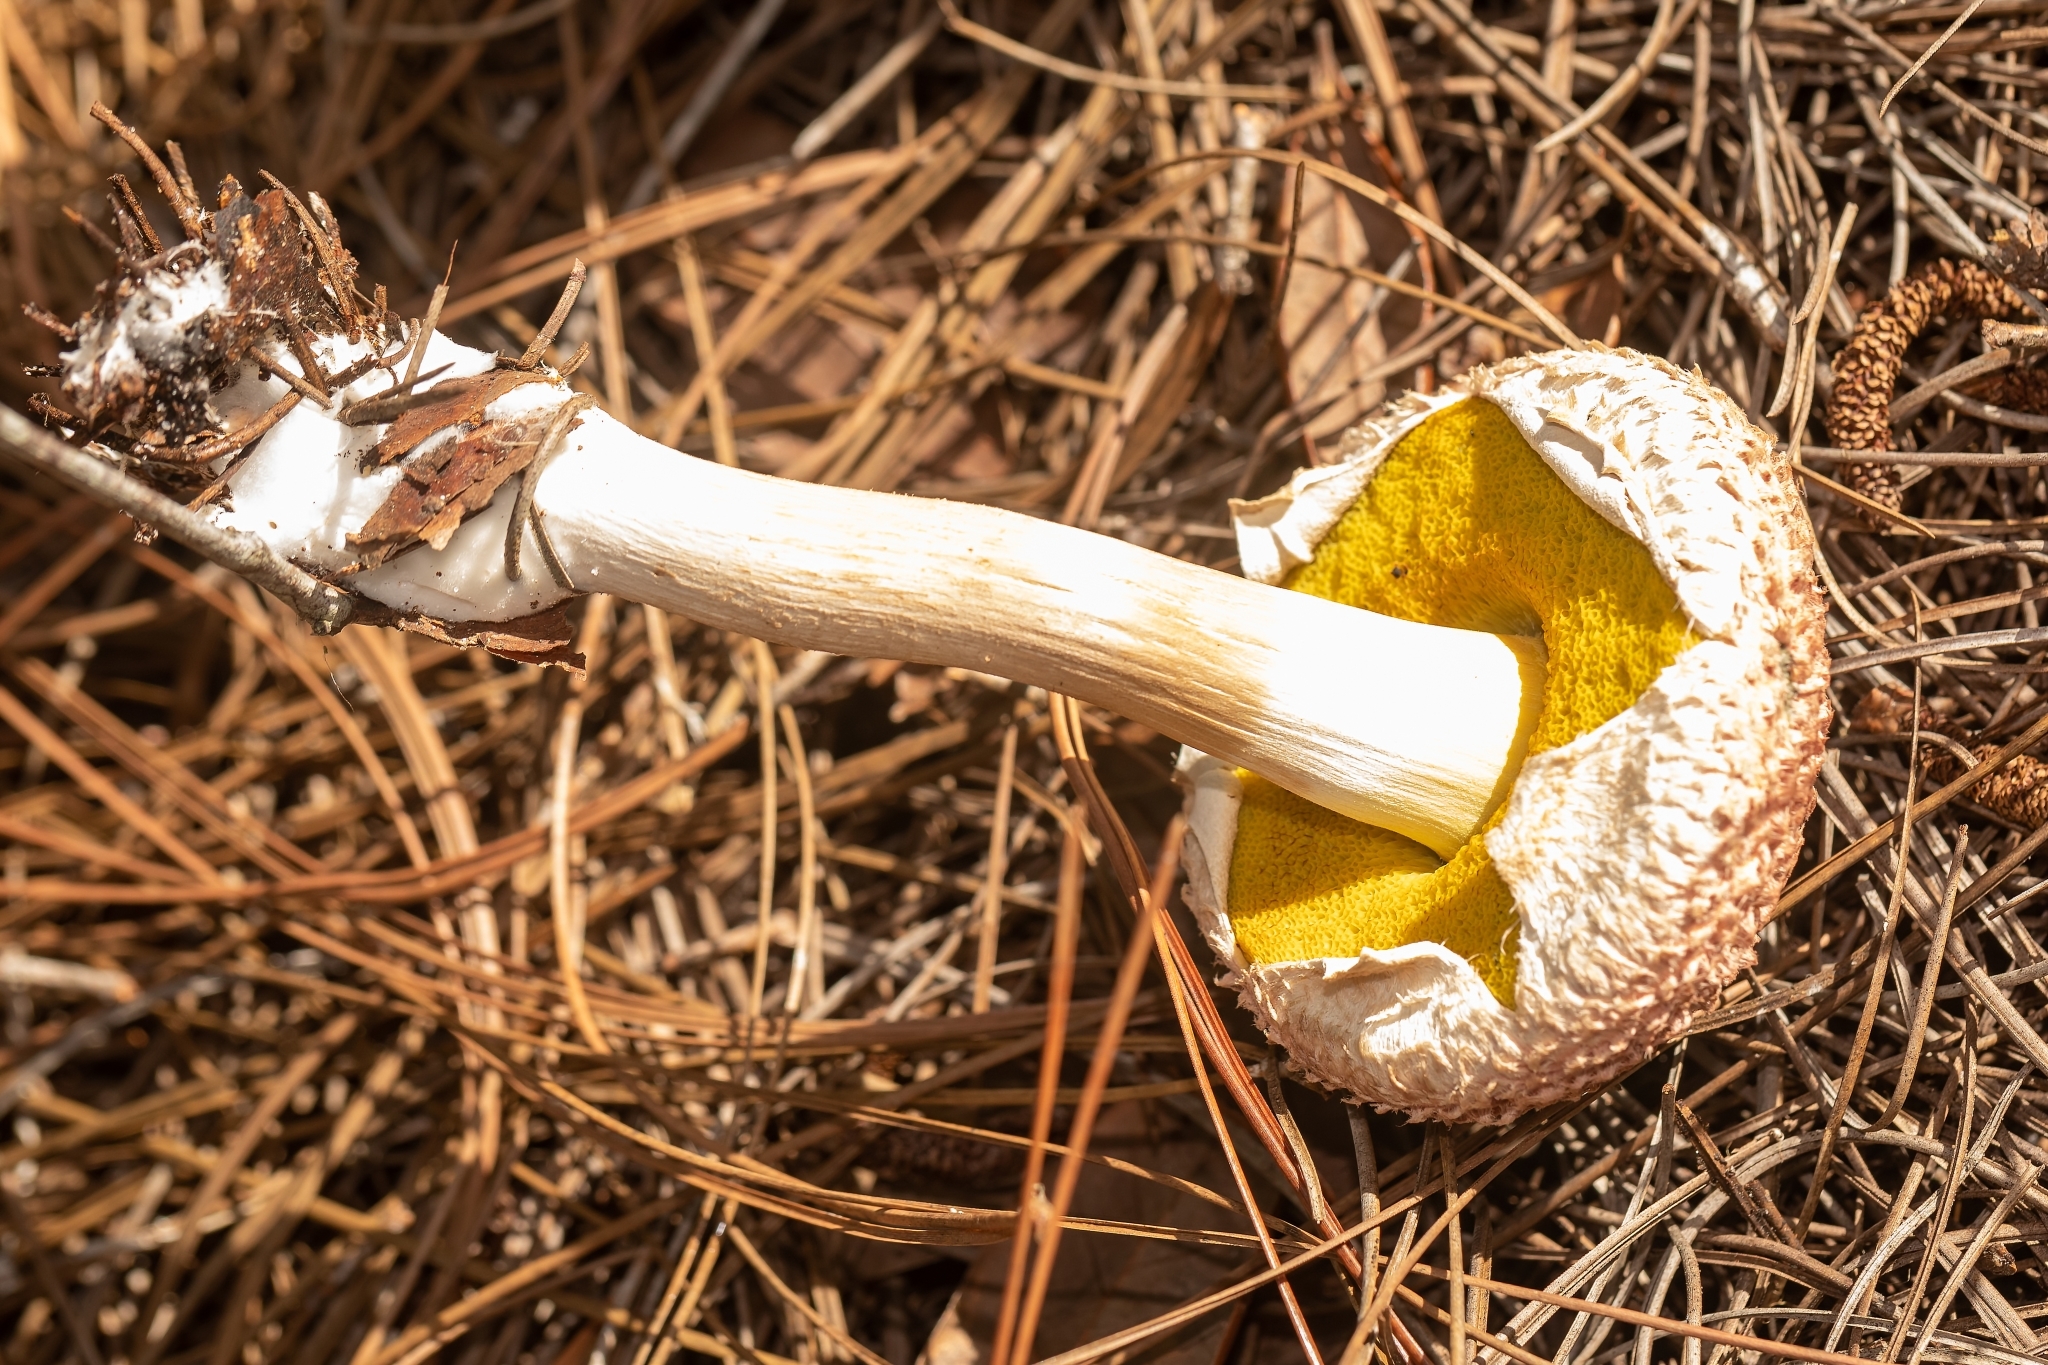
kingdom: Fungi
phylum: Basidiomycota
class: Agaricomycetes
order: Boletales
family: Boletaceae
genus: Boletellus
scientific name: Boletellus ananas
